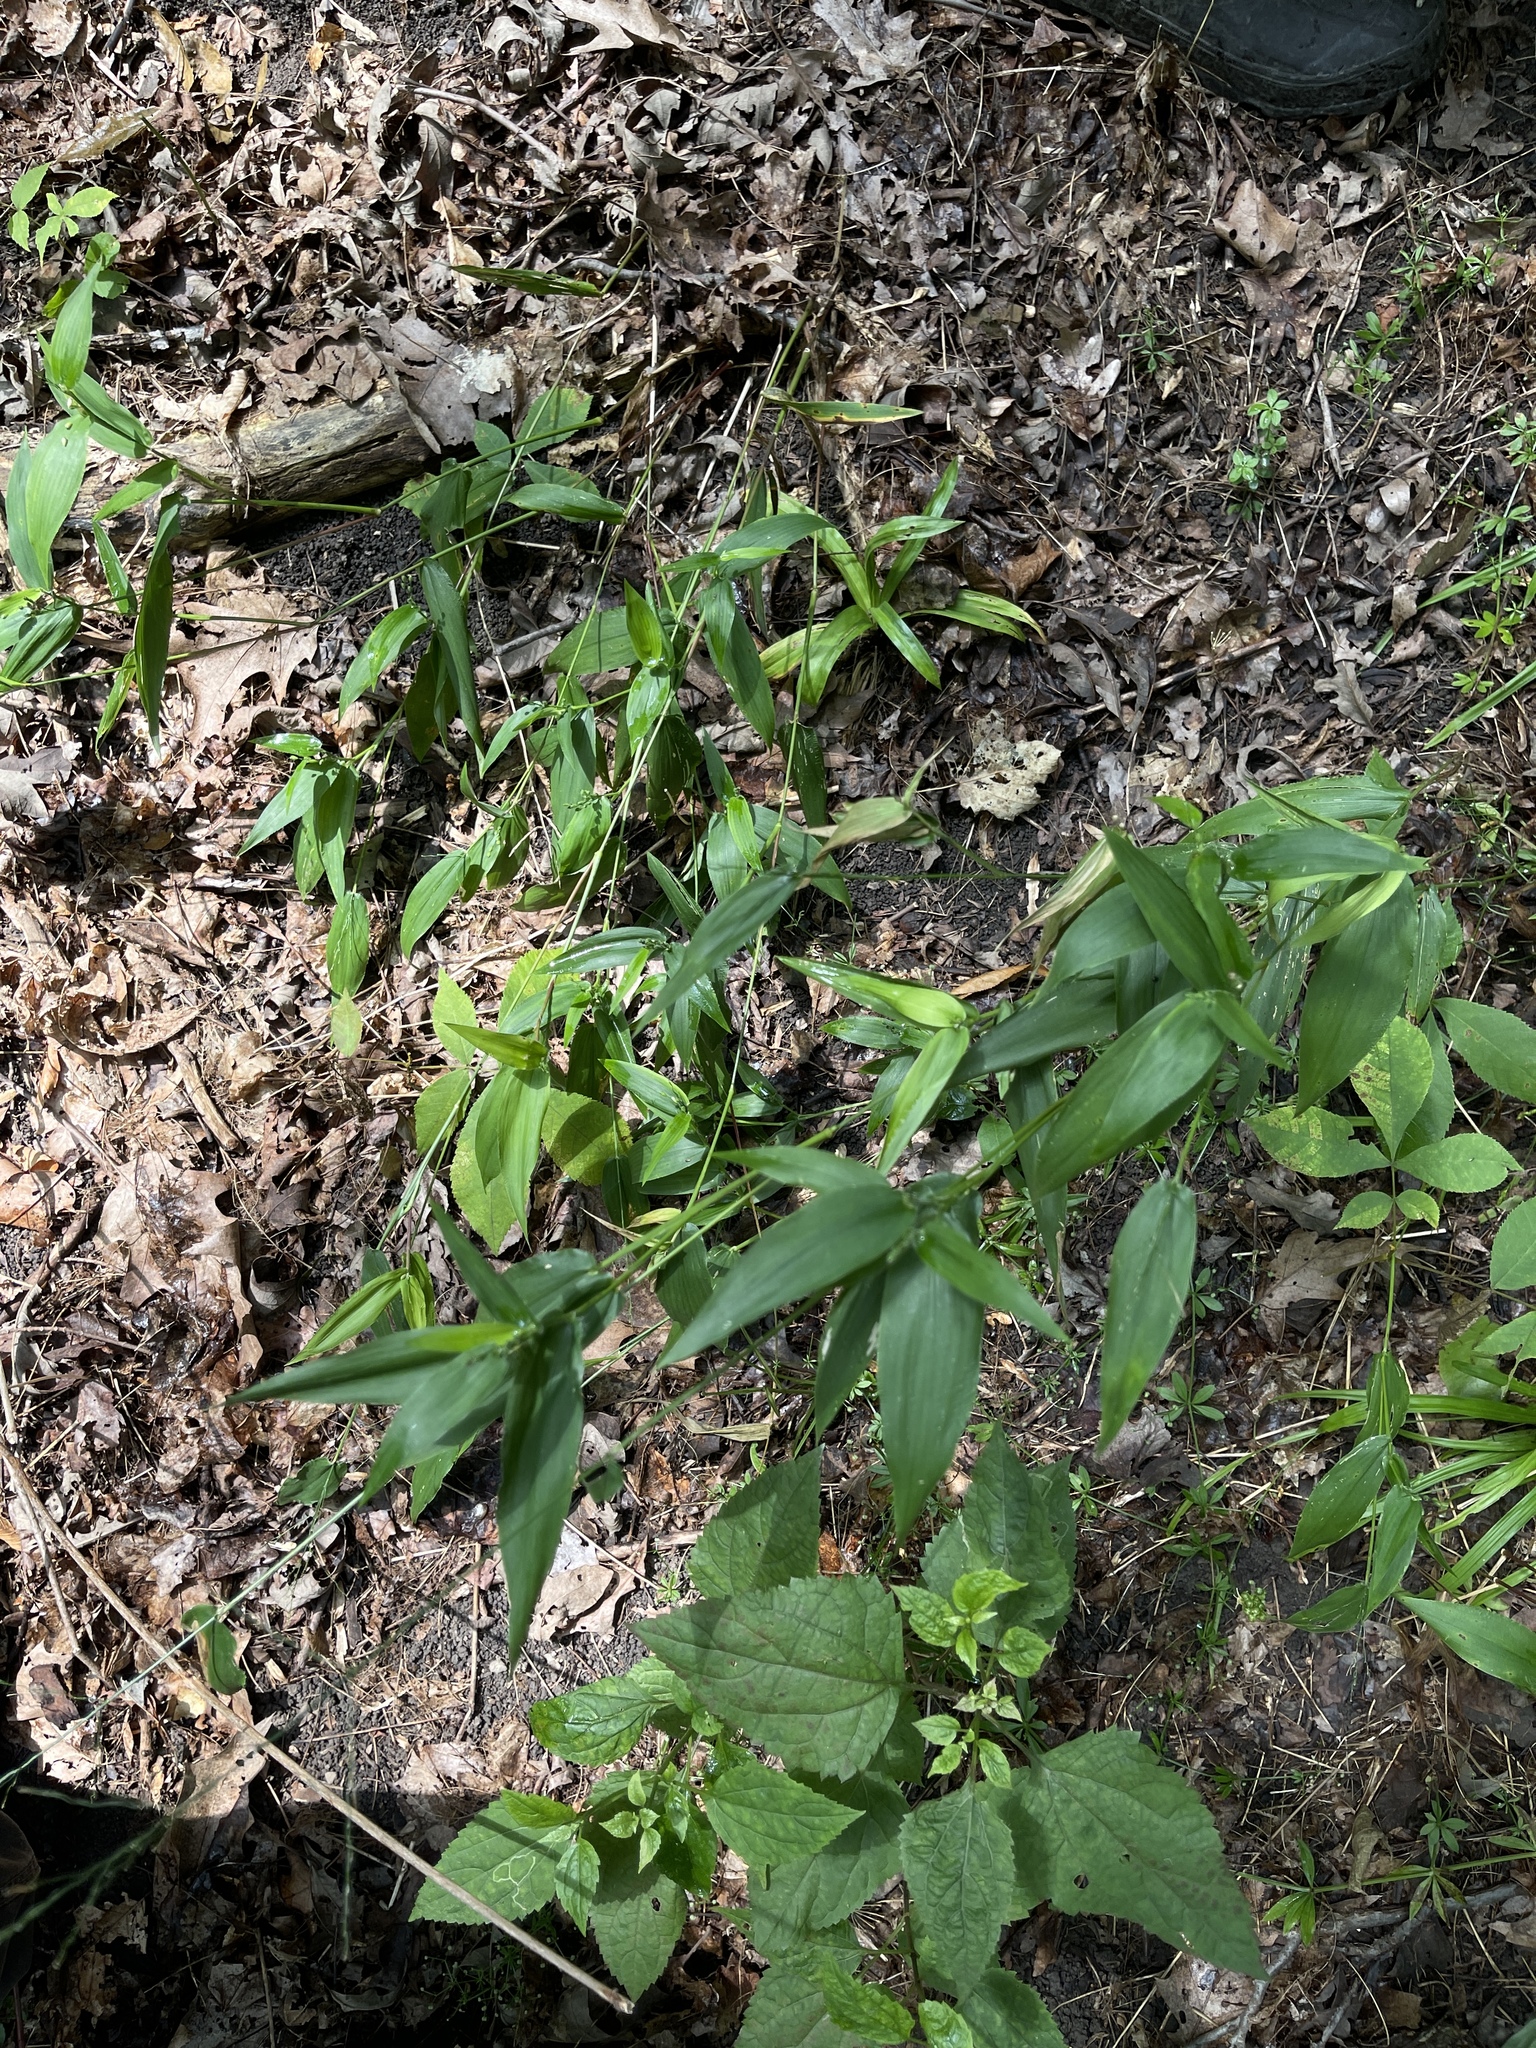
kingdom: Plantae
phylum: Tracheophyta
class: Liliopsida
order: Poales
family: Poaceae
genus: Dichanthelium
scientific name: Dichanthelium latifolium
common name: Broad-leaved panicgrass
